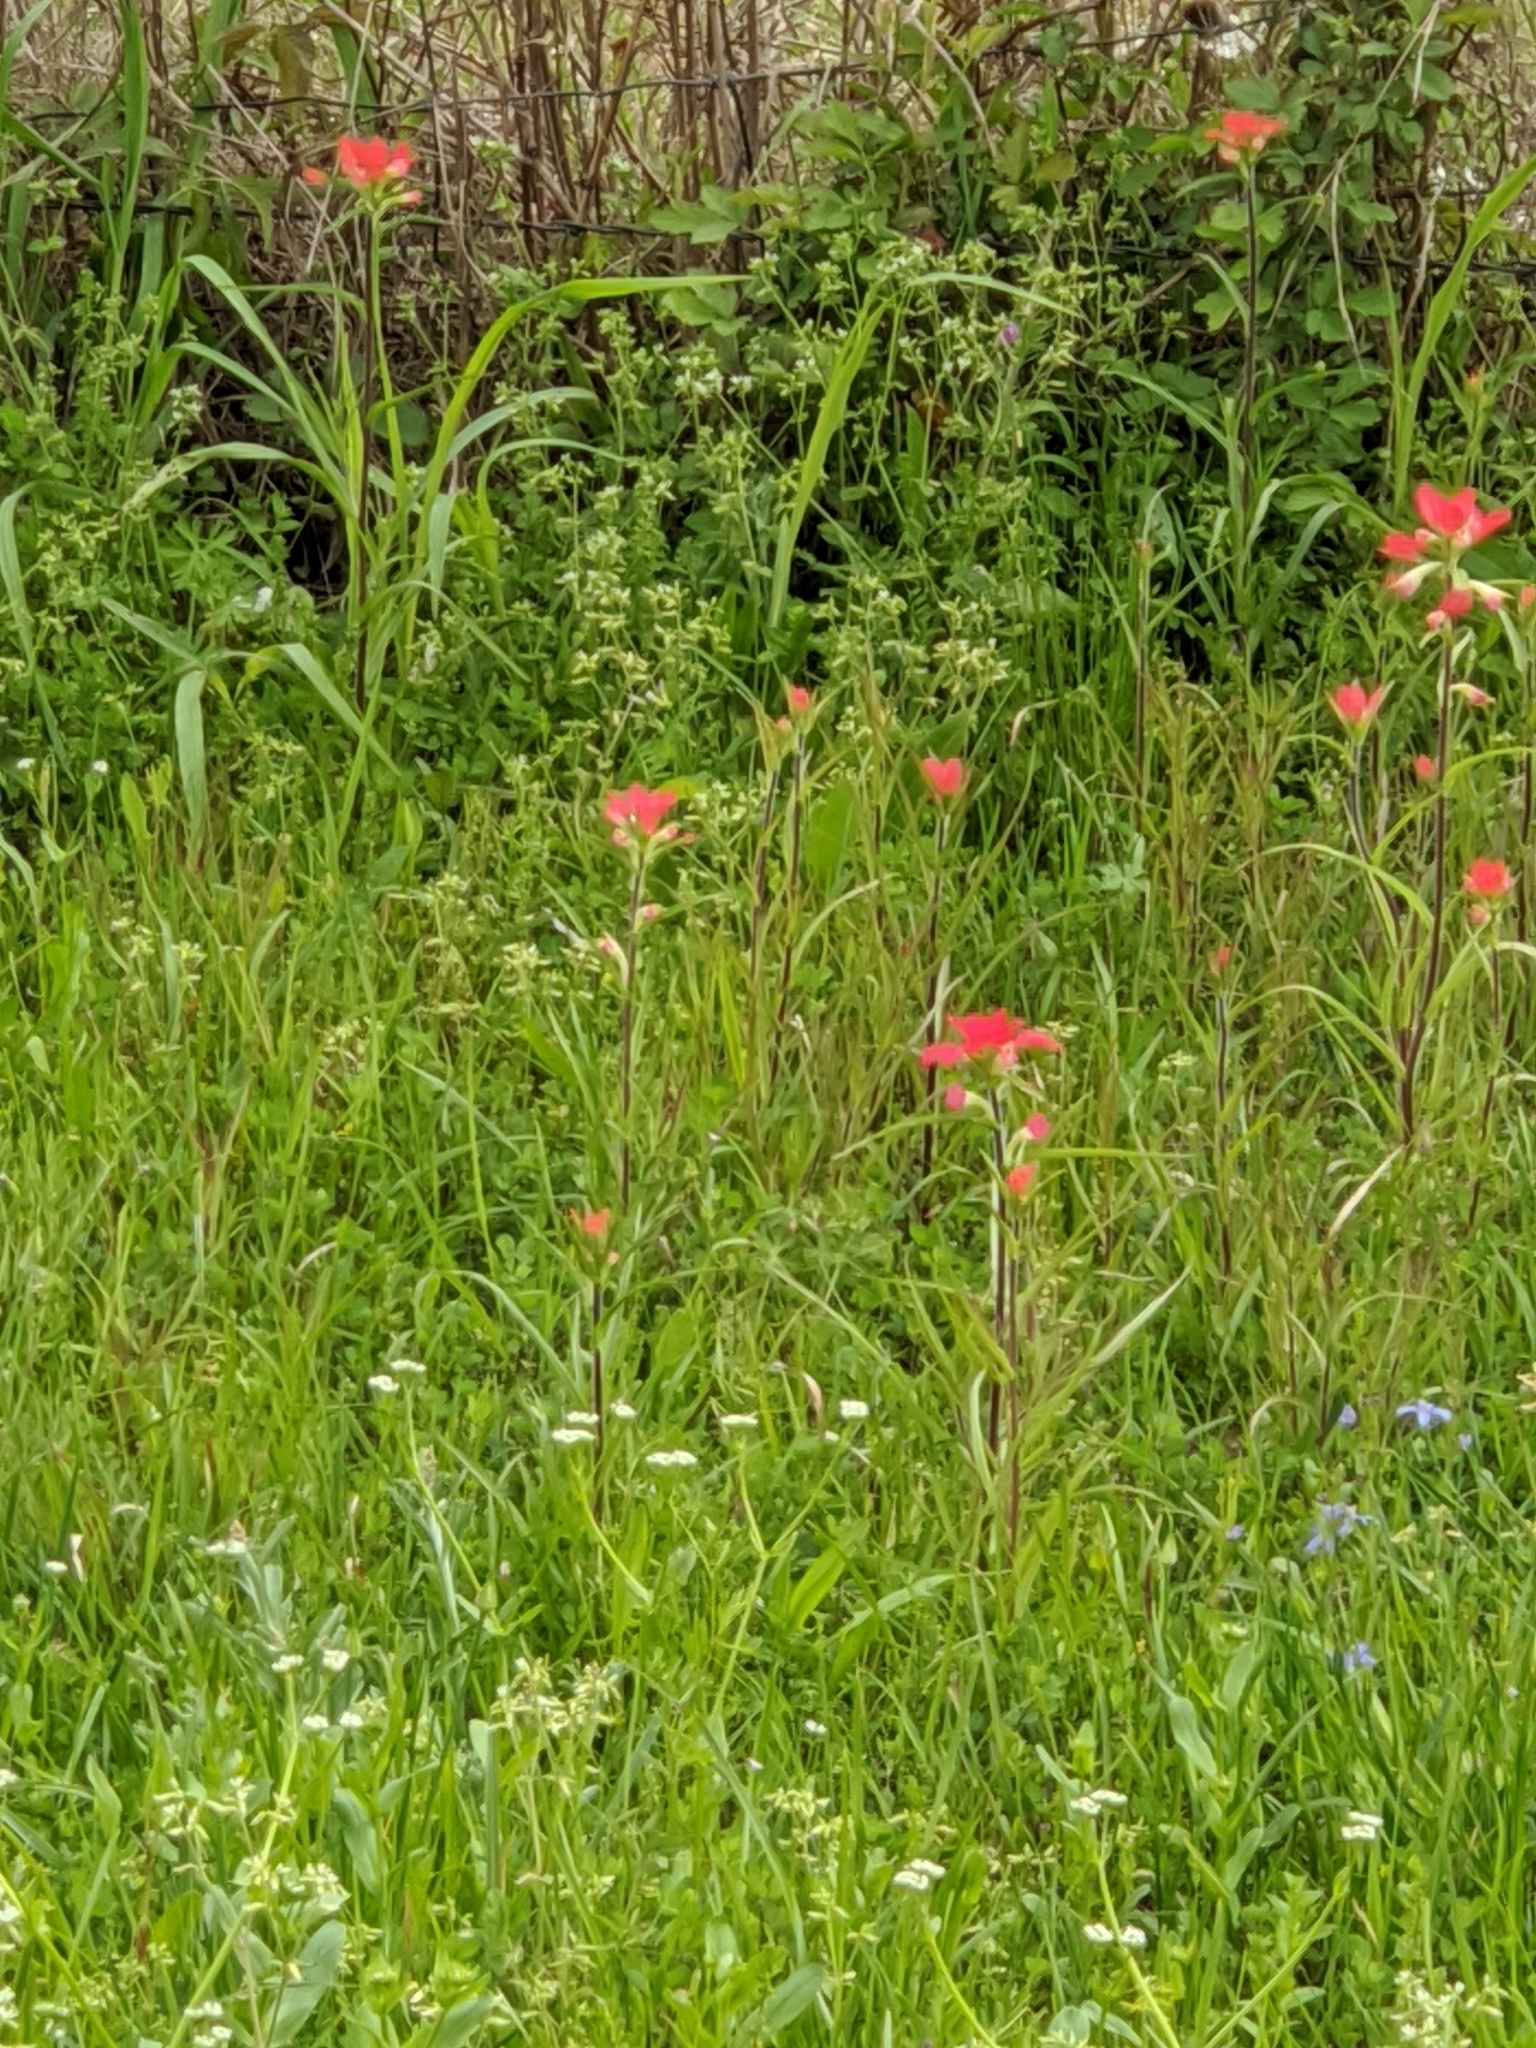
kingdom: Plantae
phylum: Tracheophyta
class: Magnoliopsida
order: Lamiales
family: Orobanchaceae
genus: Castilleja
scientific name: Castilleja indivisa
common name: Texas paintbrush
